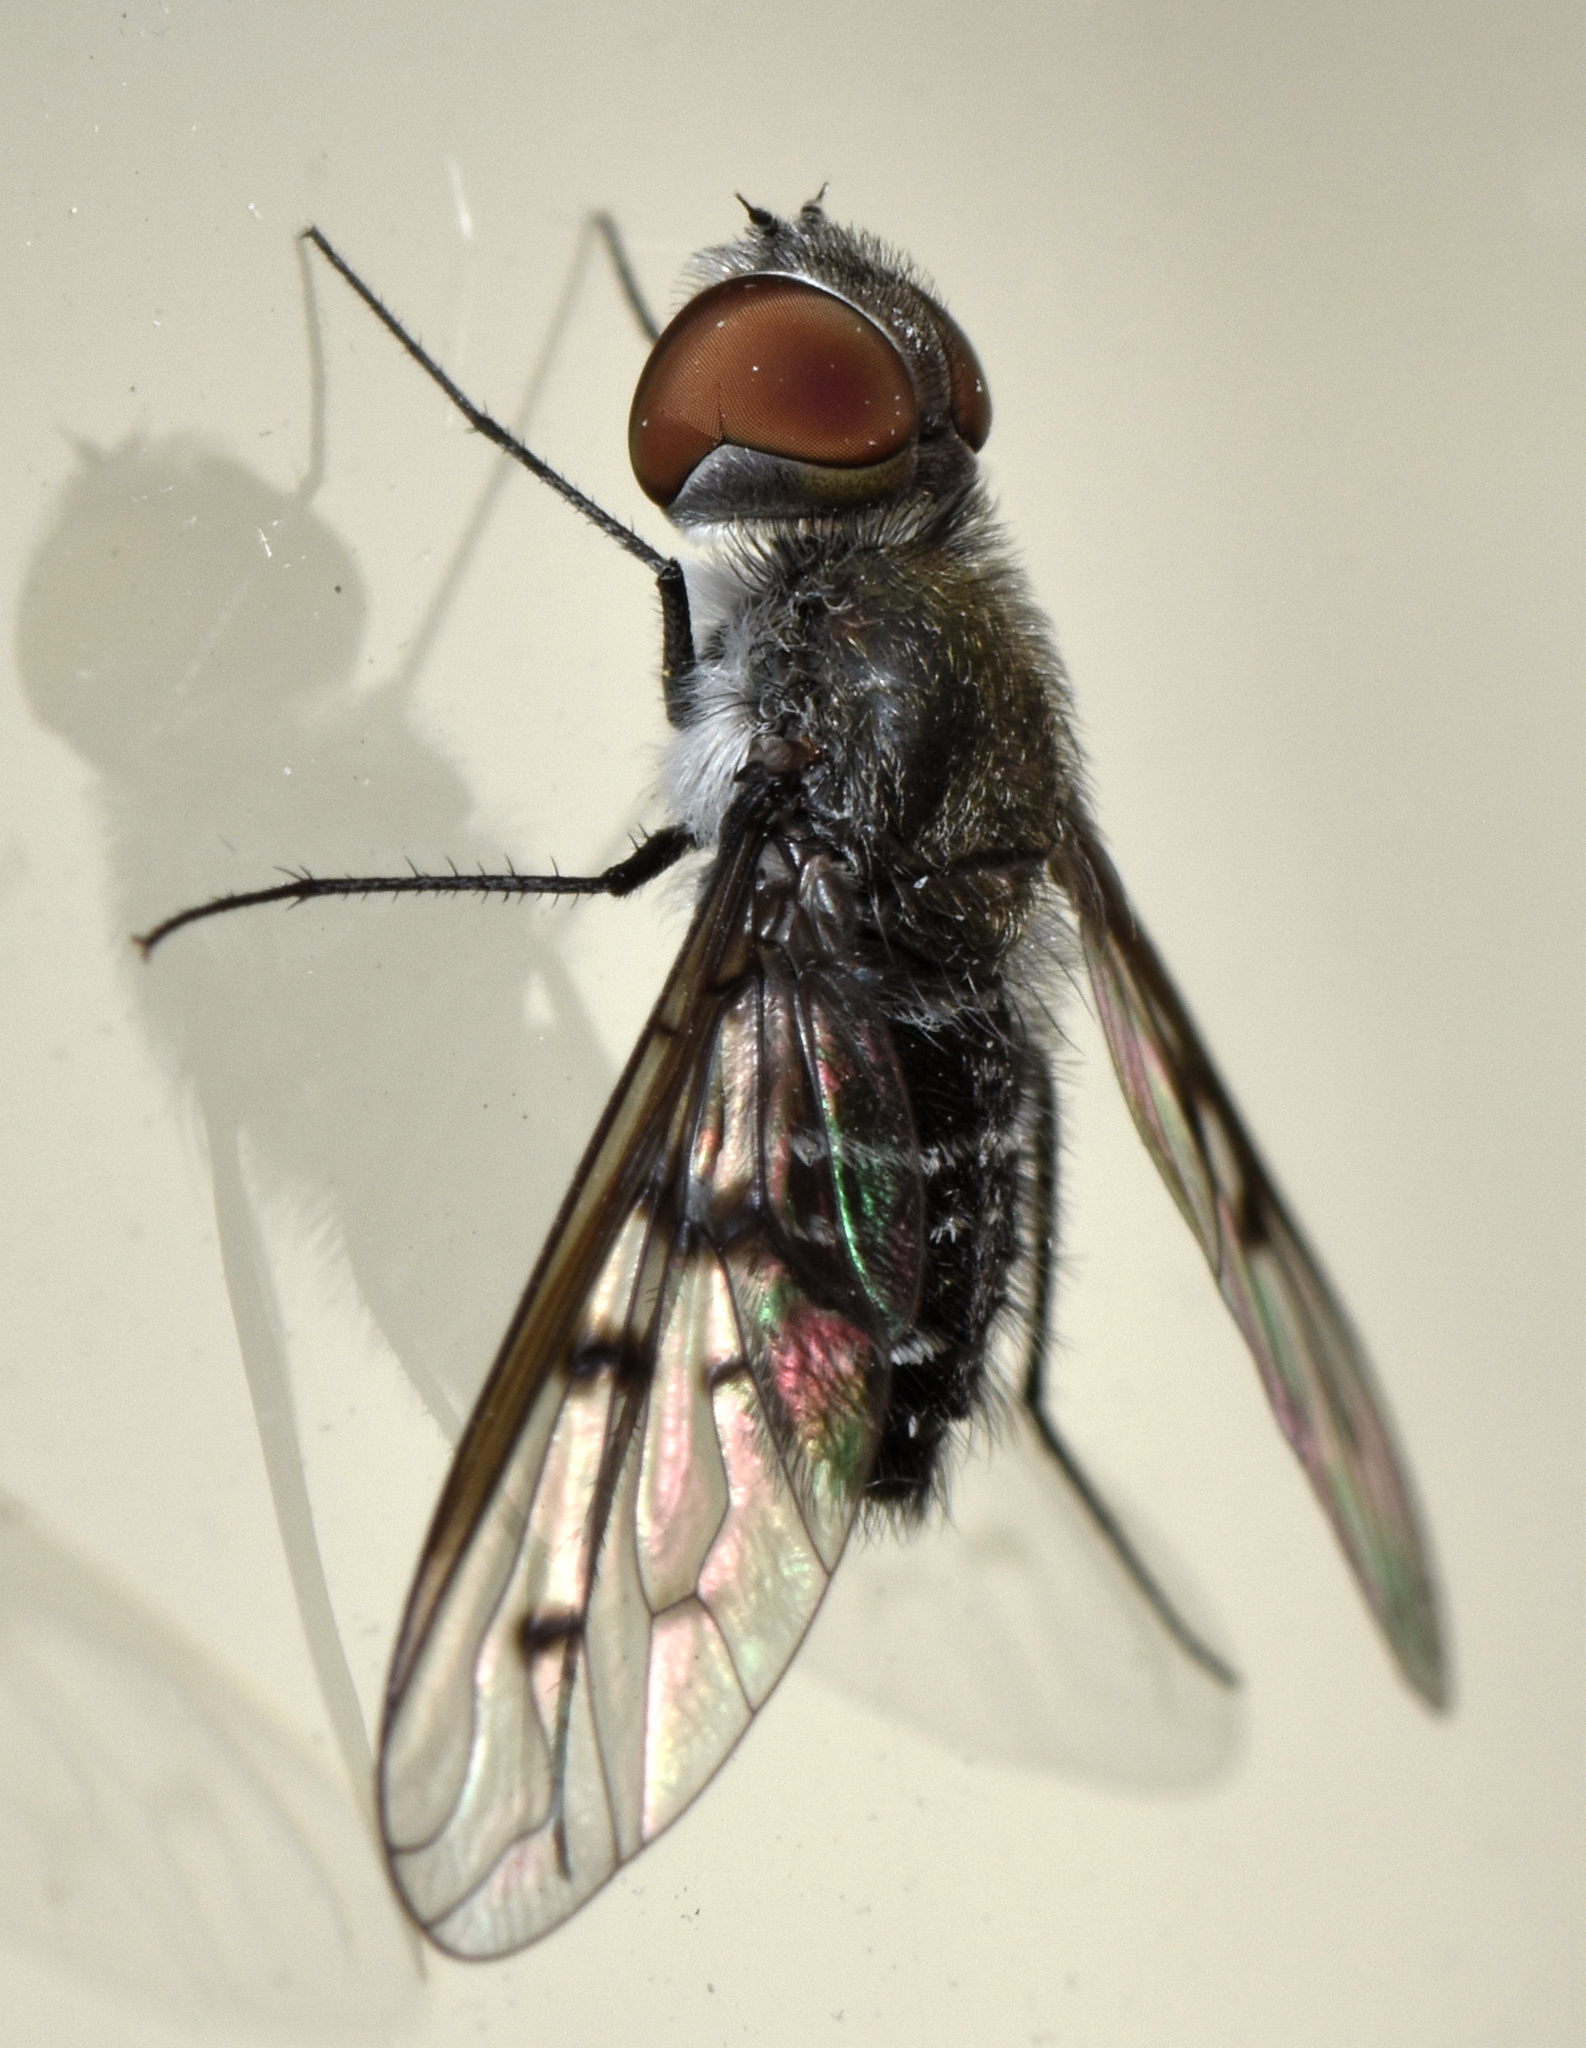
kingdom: Animalia
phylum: Arthropoda
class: Insecta
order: Diptera
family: Bombyliidae
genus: Anthrax
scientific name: Anthrax sticticus
